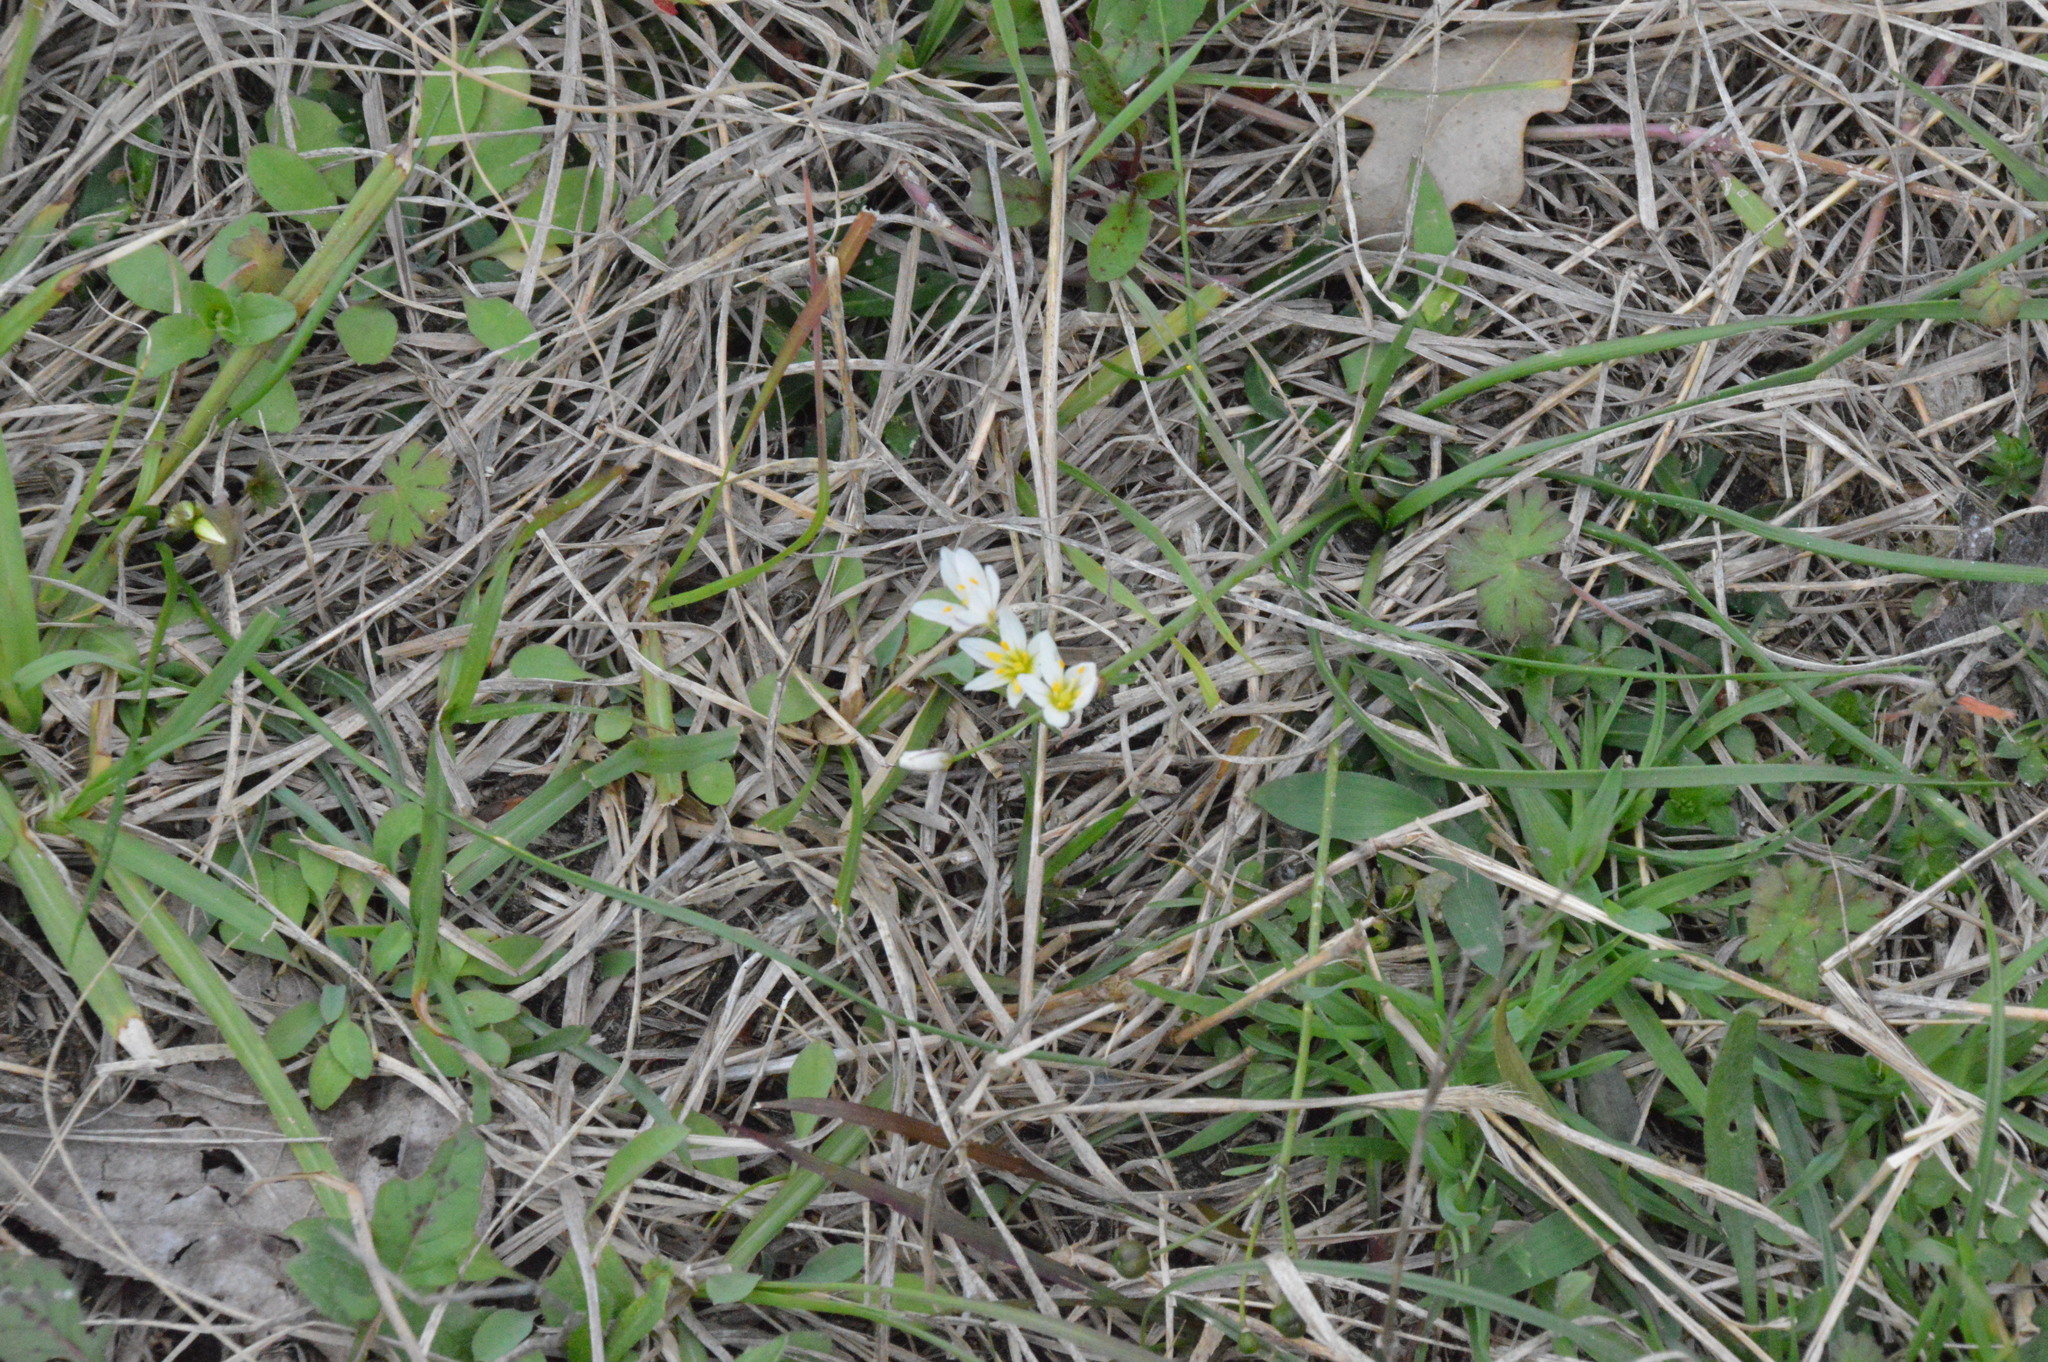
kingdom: Plantae
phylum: Tracheophyta
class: Liliopsida
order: Asparagales
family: Amaryllidaceae
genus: Nothoscordum
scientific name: Nothoscordum bivalve
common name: Crow-poison
